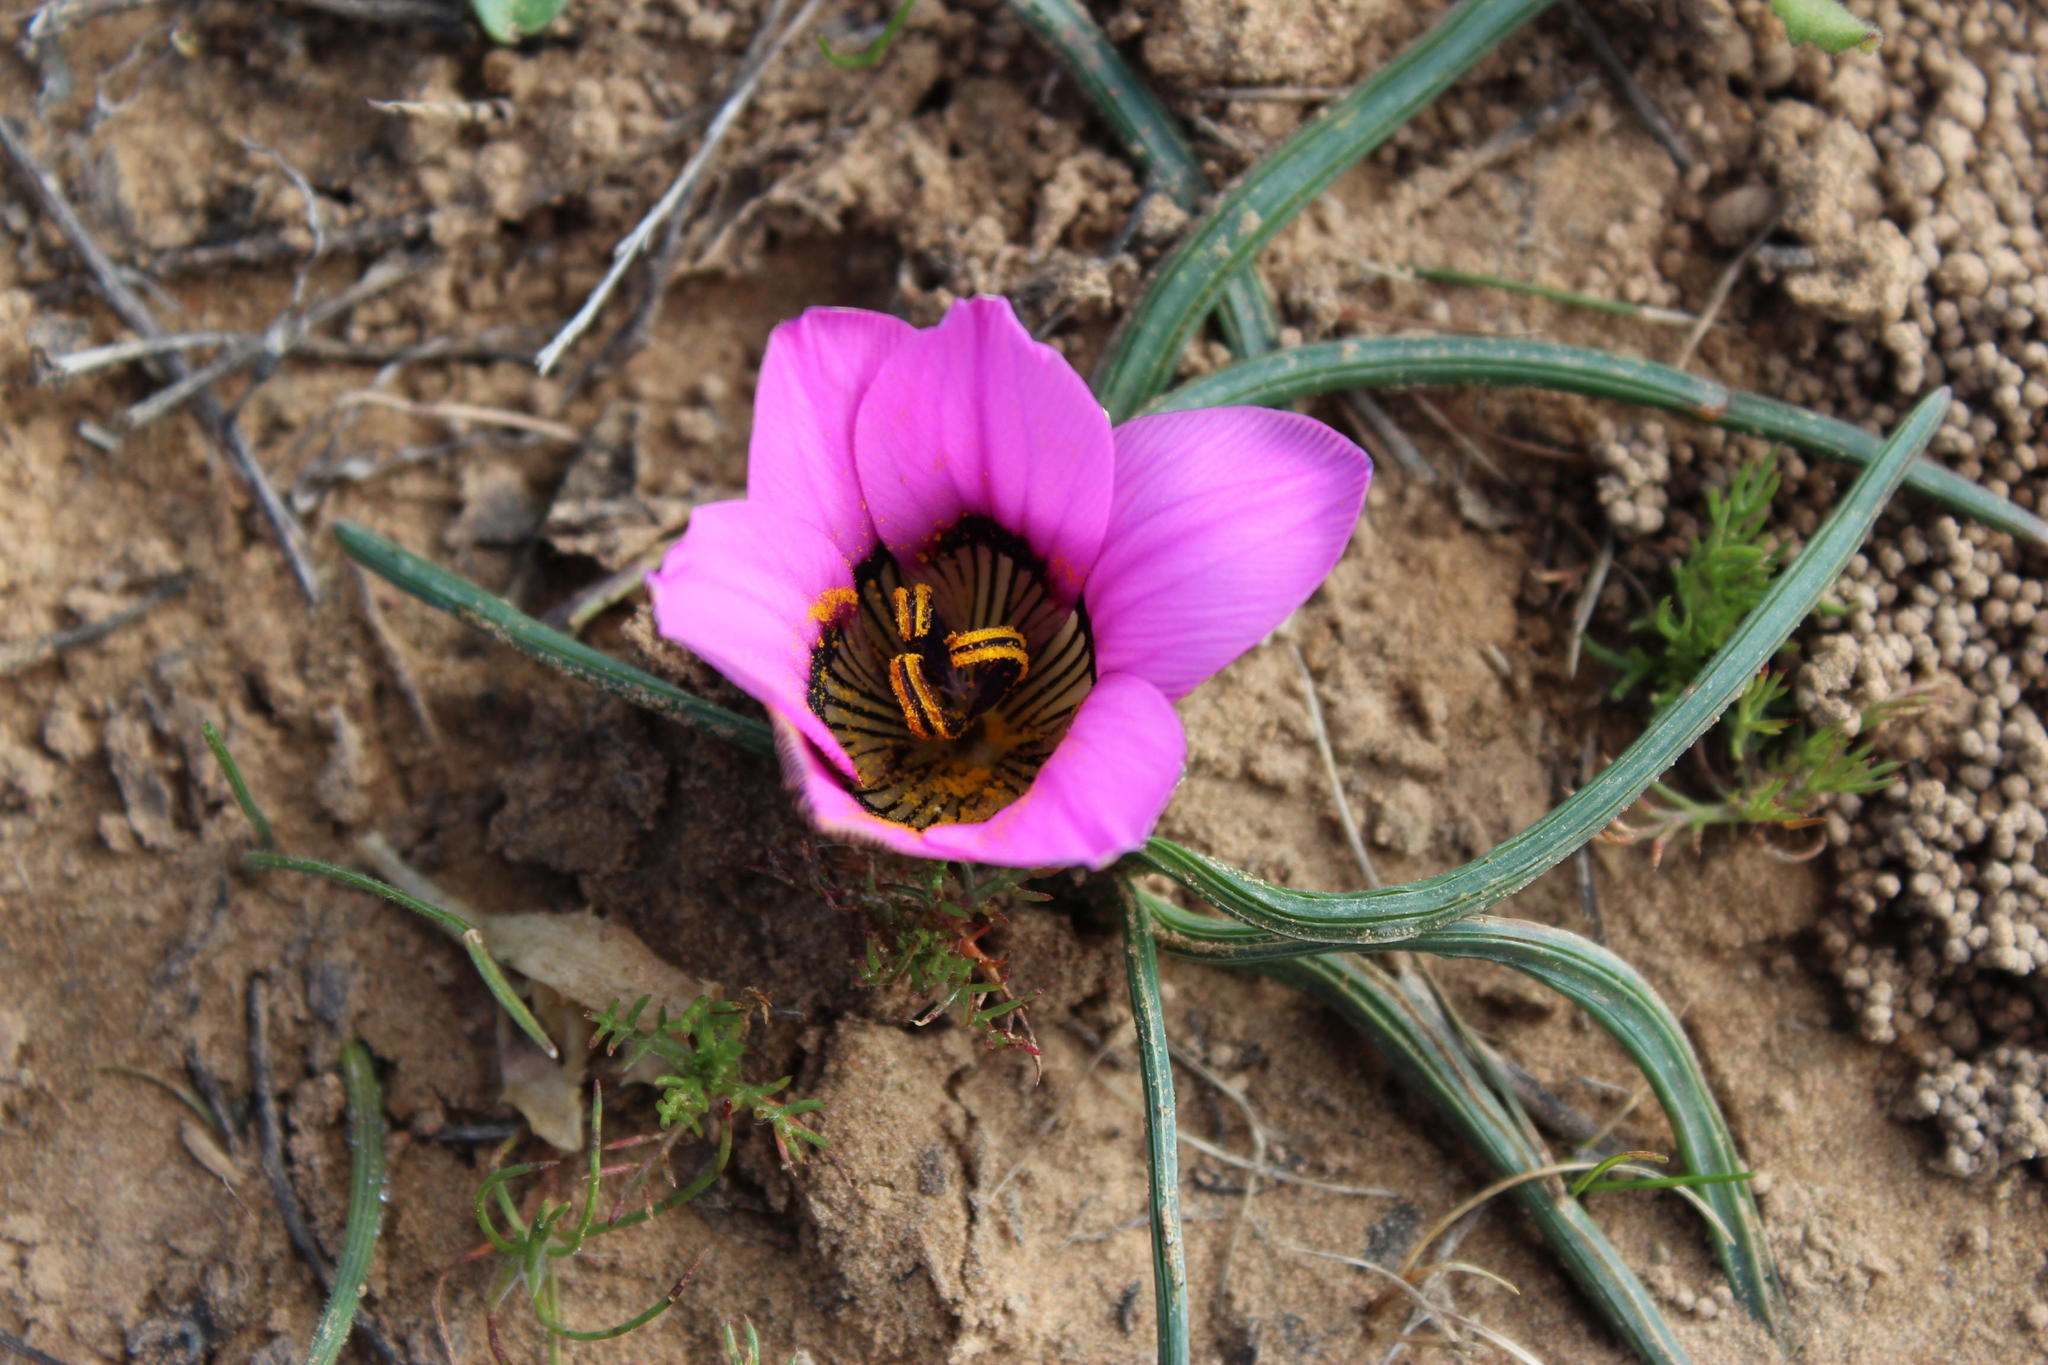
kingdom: Plantae
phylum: Tracheophyta
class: Liliopsida
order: Asparagales
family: Iridaceae
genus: Romulea
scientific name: Romulea atrandra
